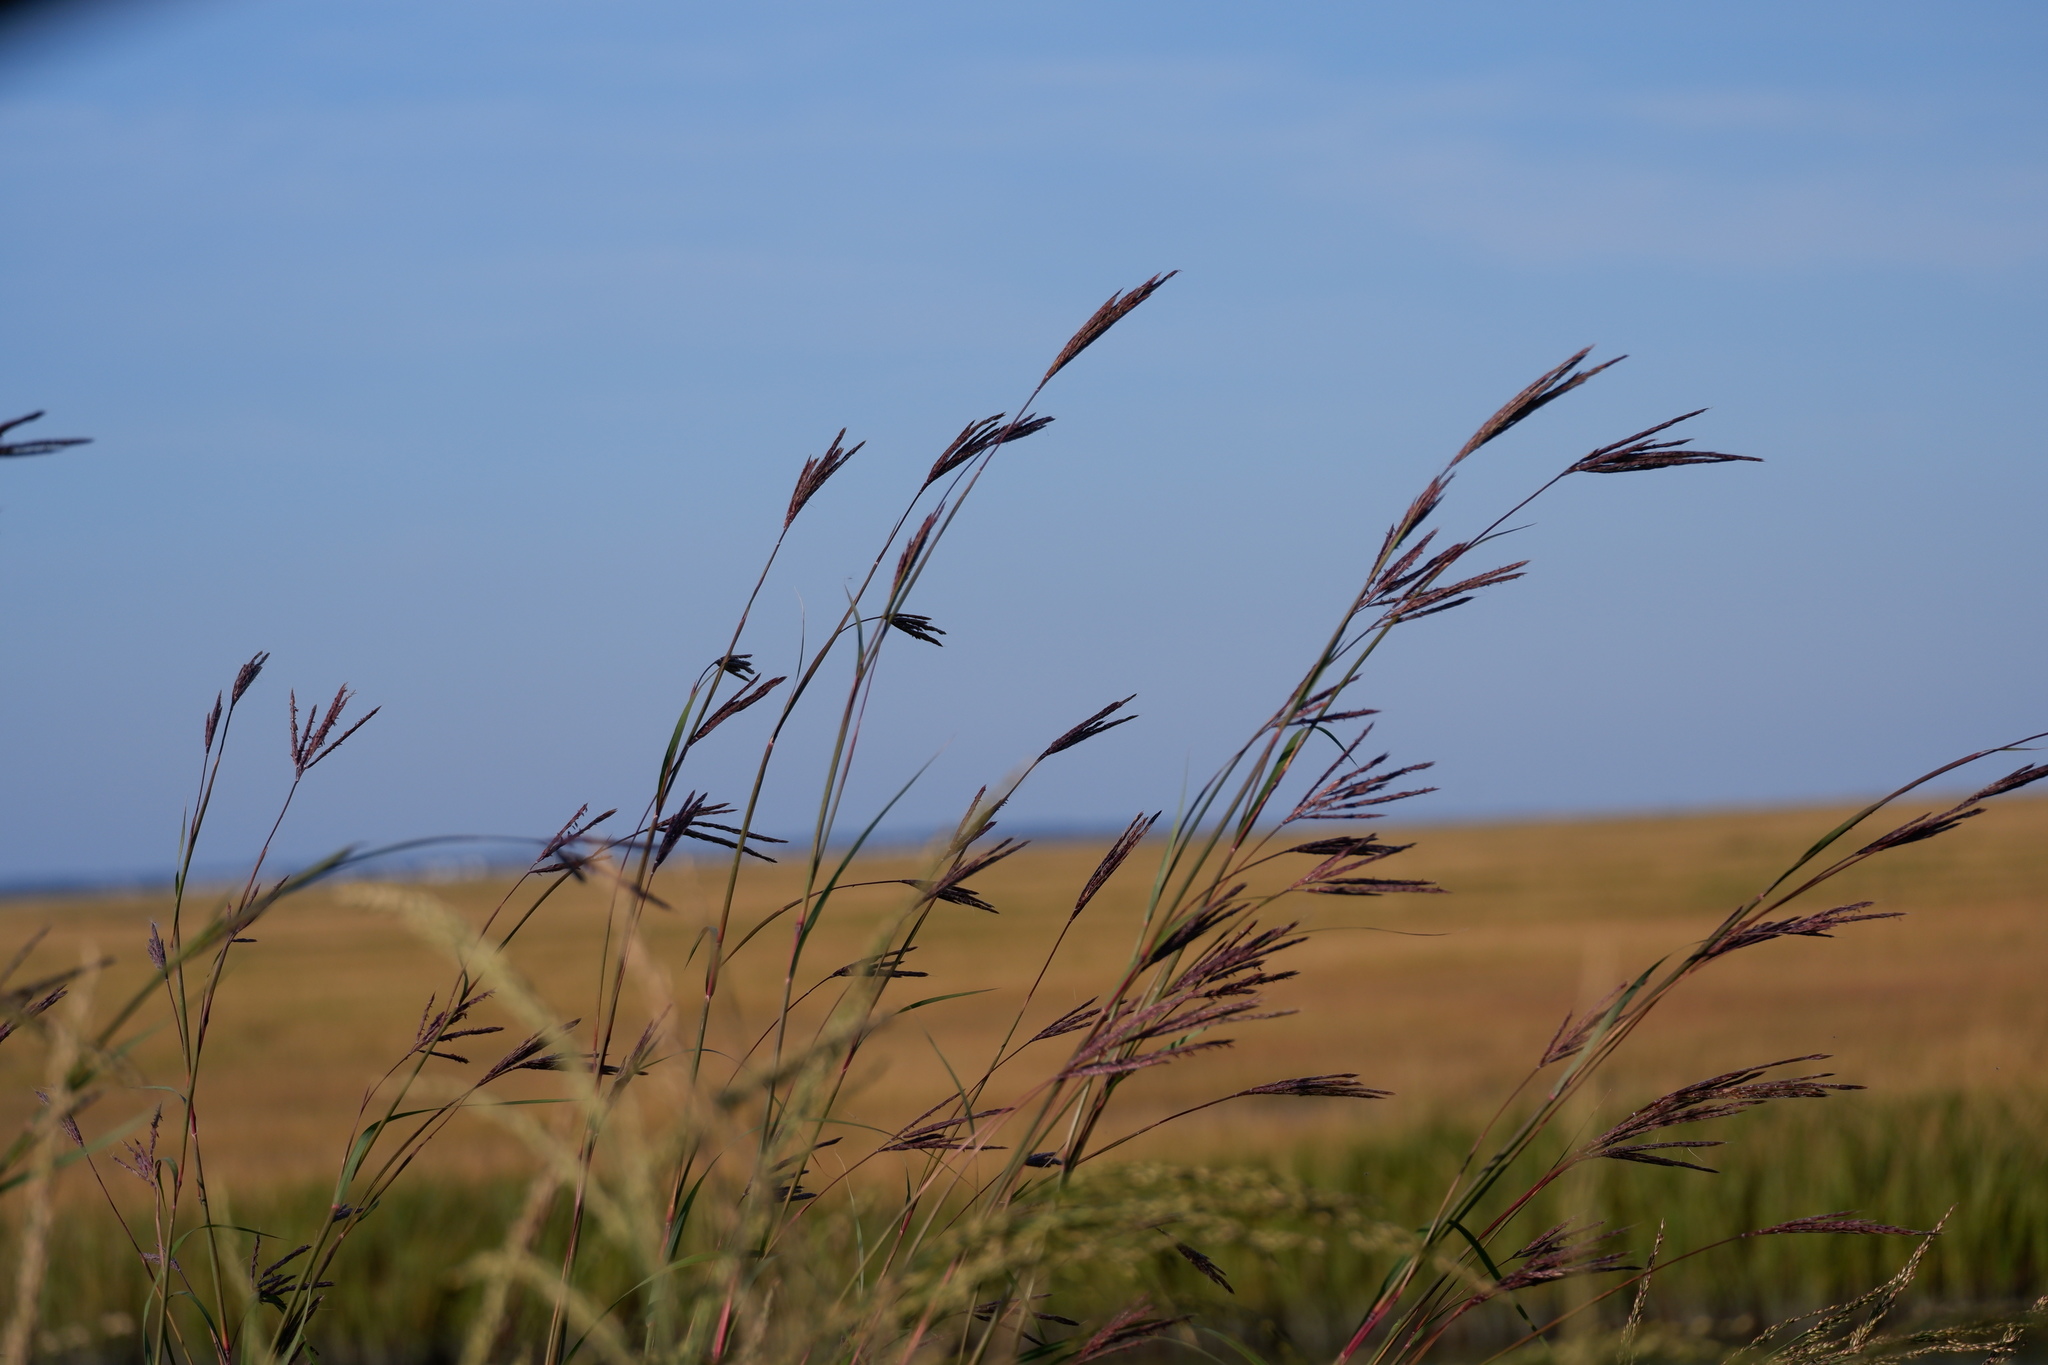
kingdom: Plantae
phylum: Tracheophyta
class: Liliopsida
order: Poales
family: Poaceae
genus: Andropogon
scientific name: Andropogon gerardi
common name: Big bluestem
